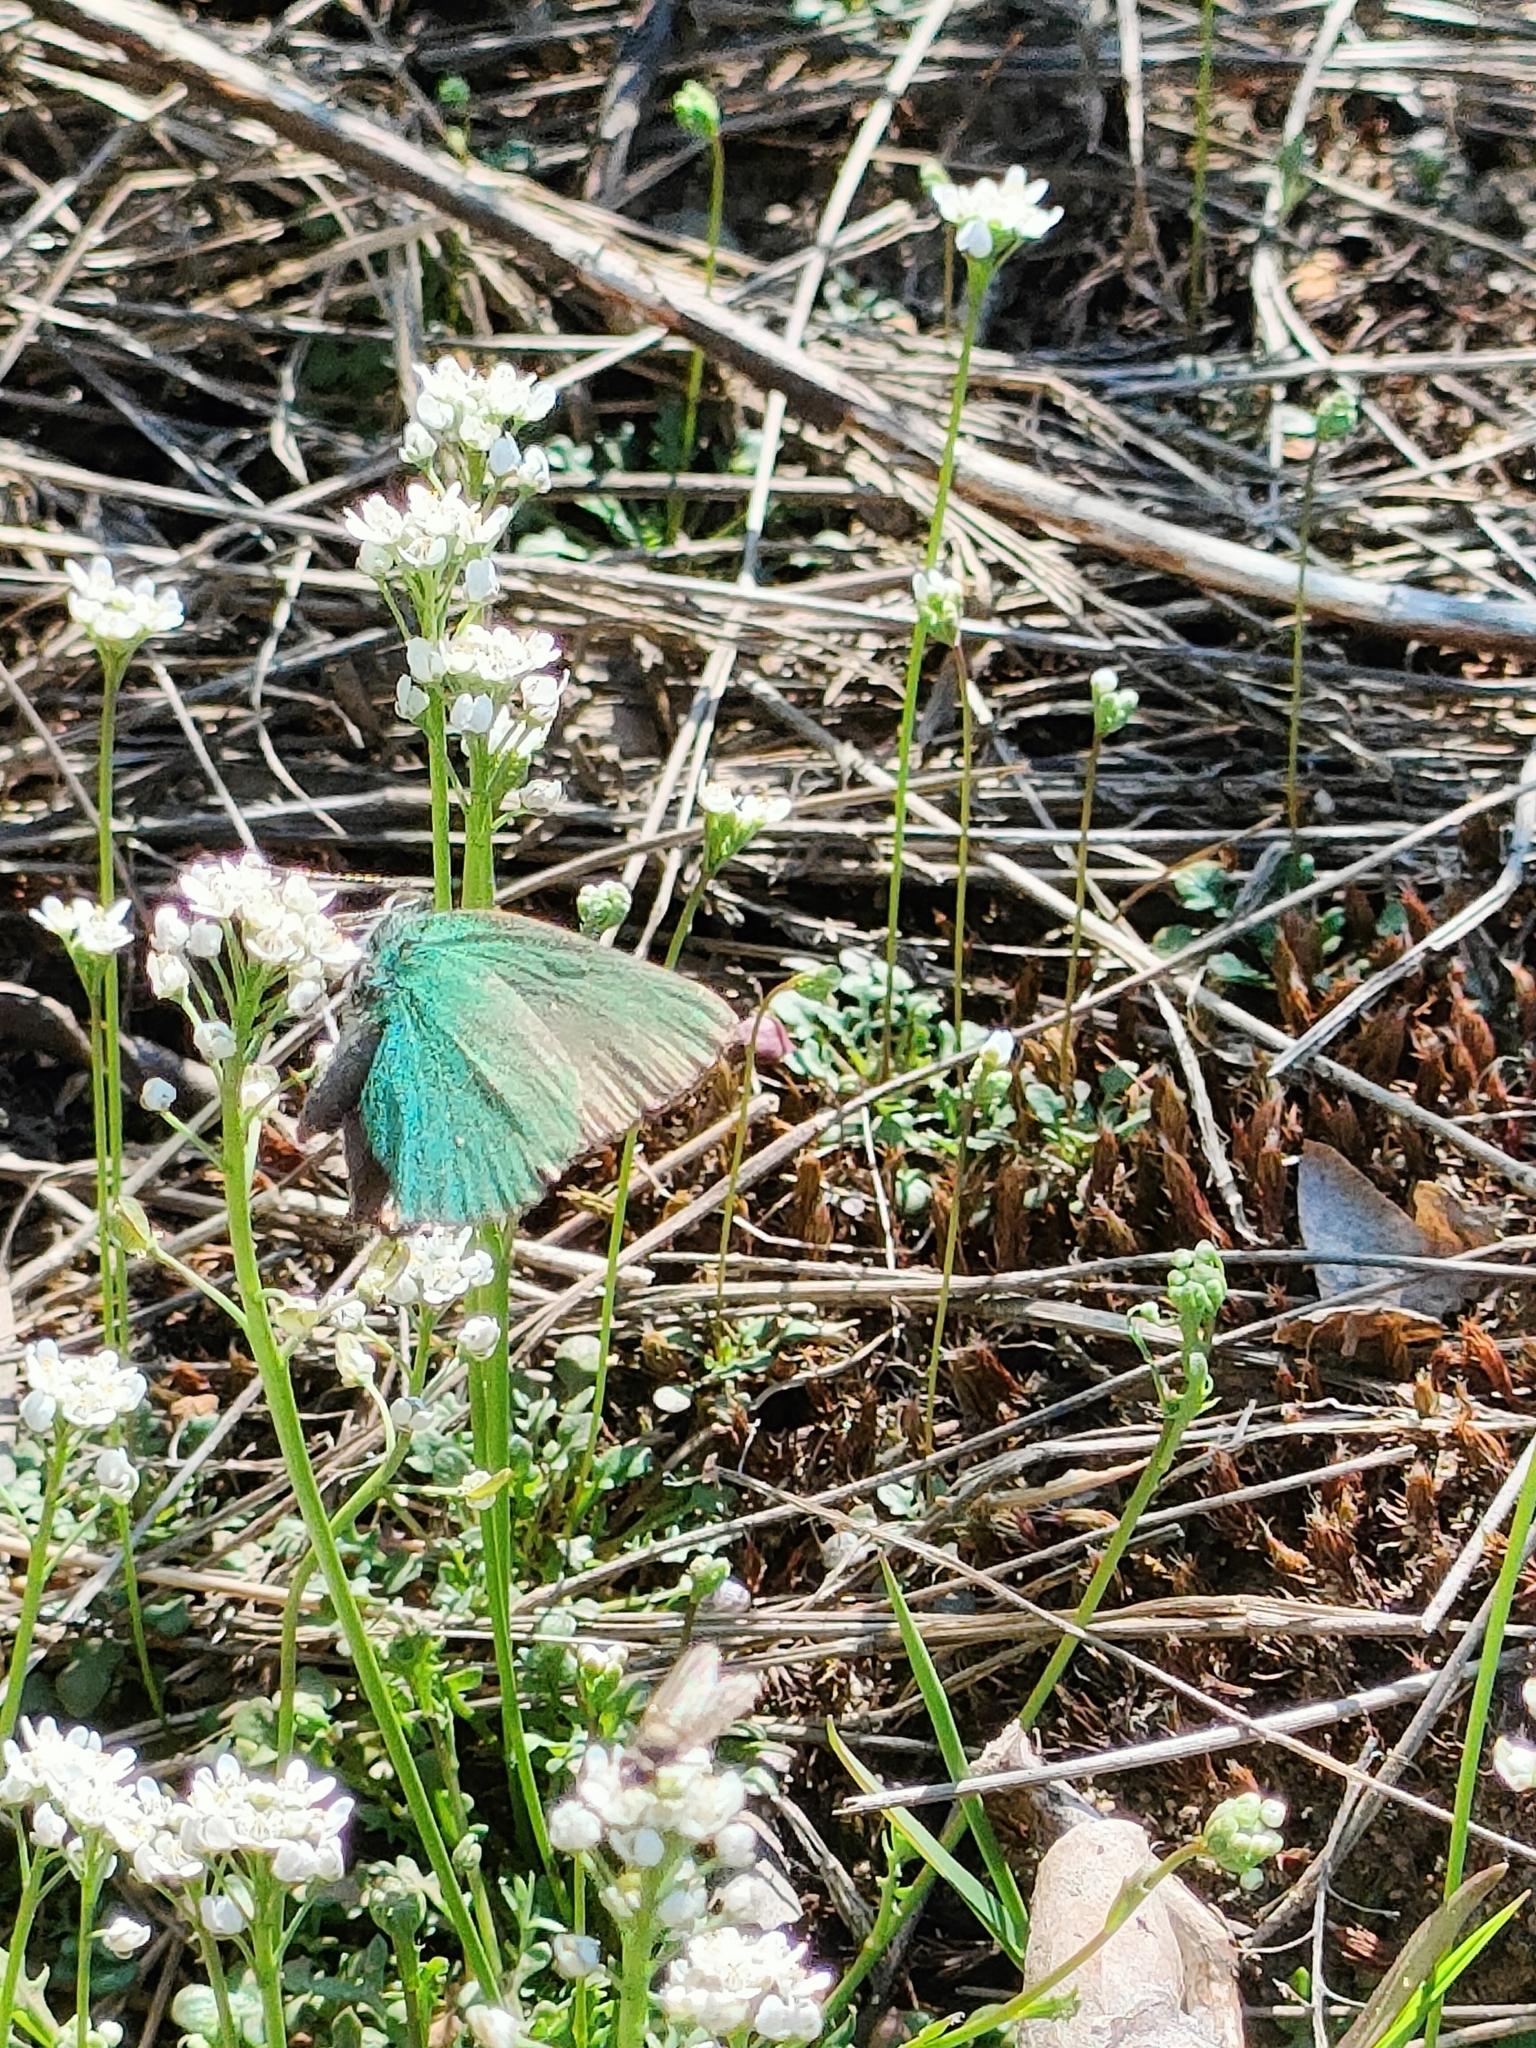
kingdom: Animalia
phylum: Arthropoda
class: Insecta
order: Lepidoptera
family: Lycaenidae
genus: Callophrys
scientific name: Callophrys rubi
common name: Green hairstreak
